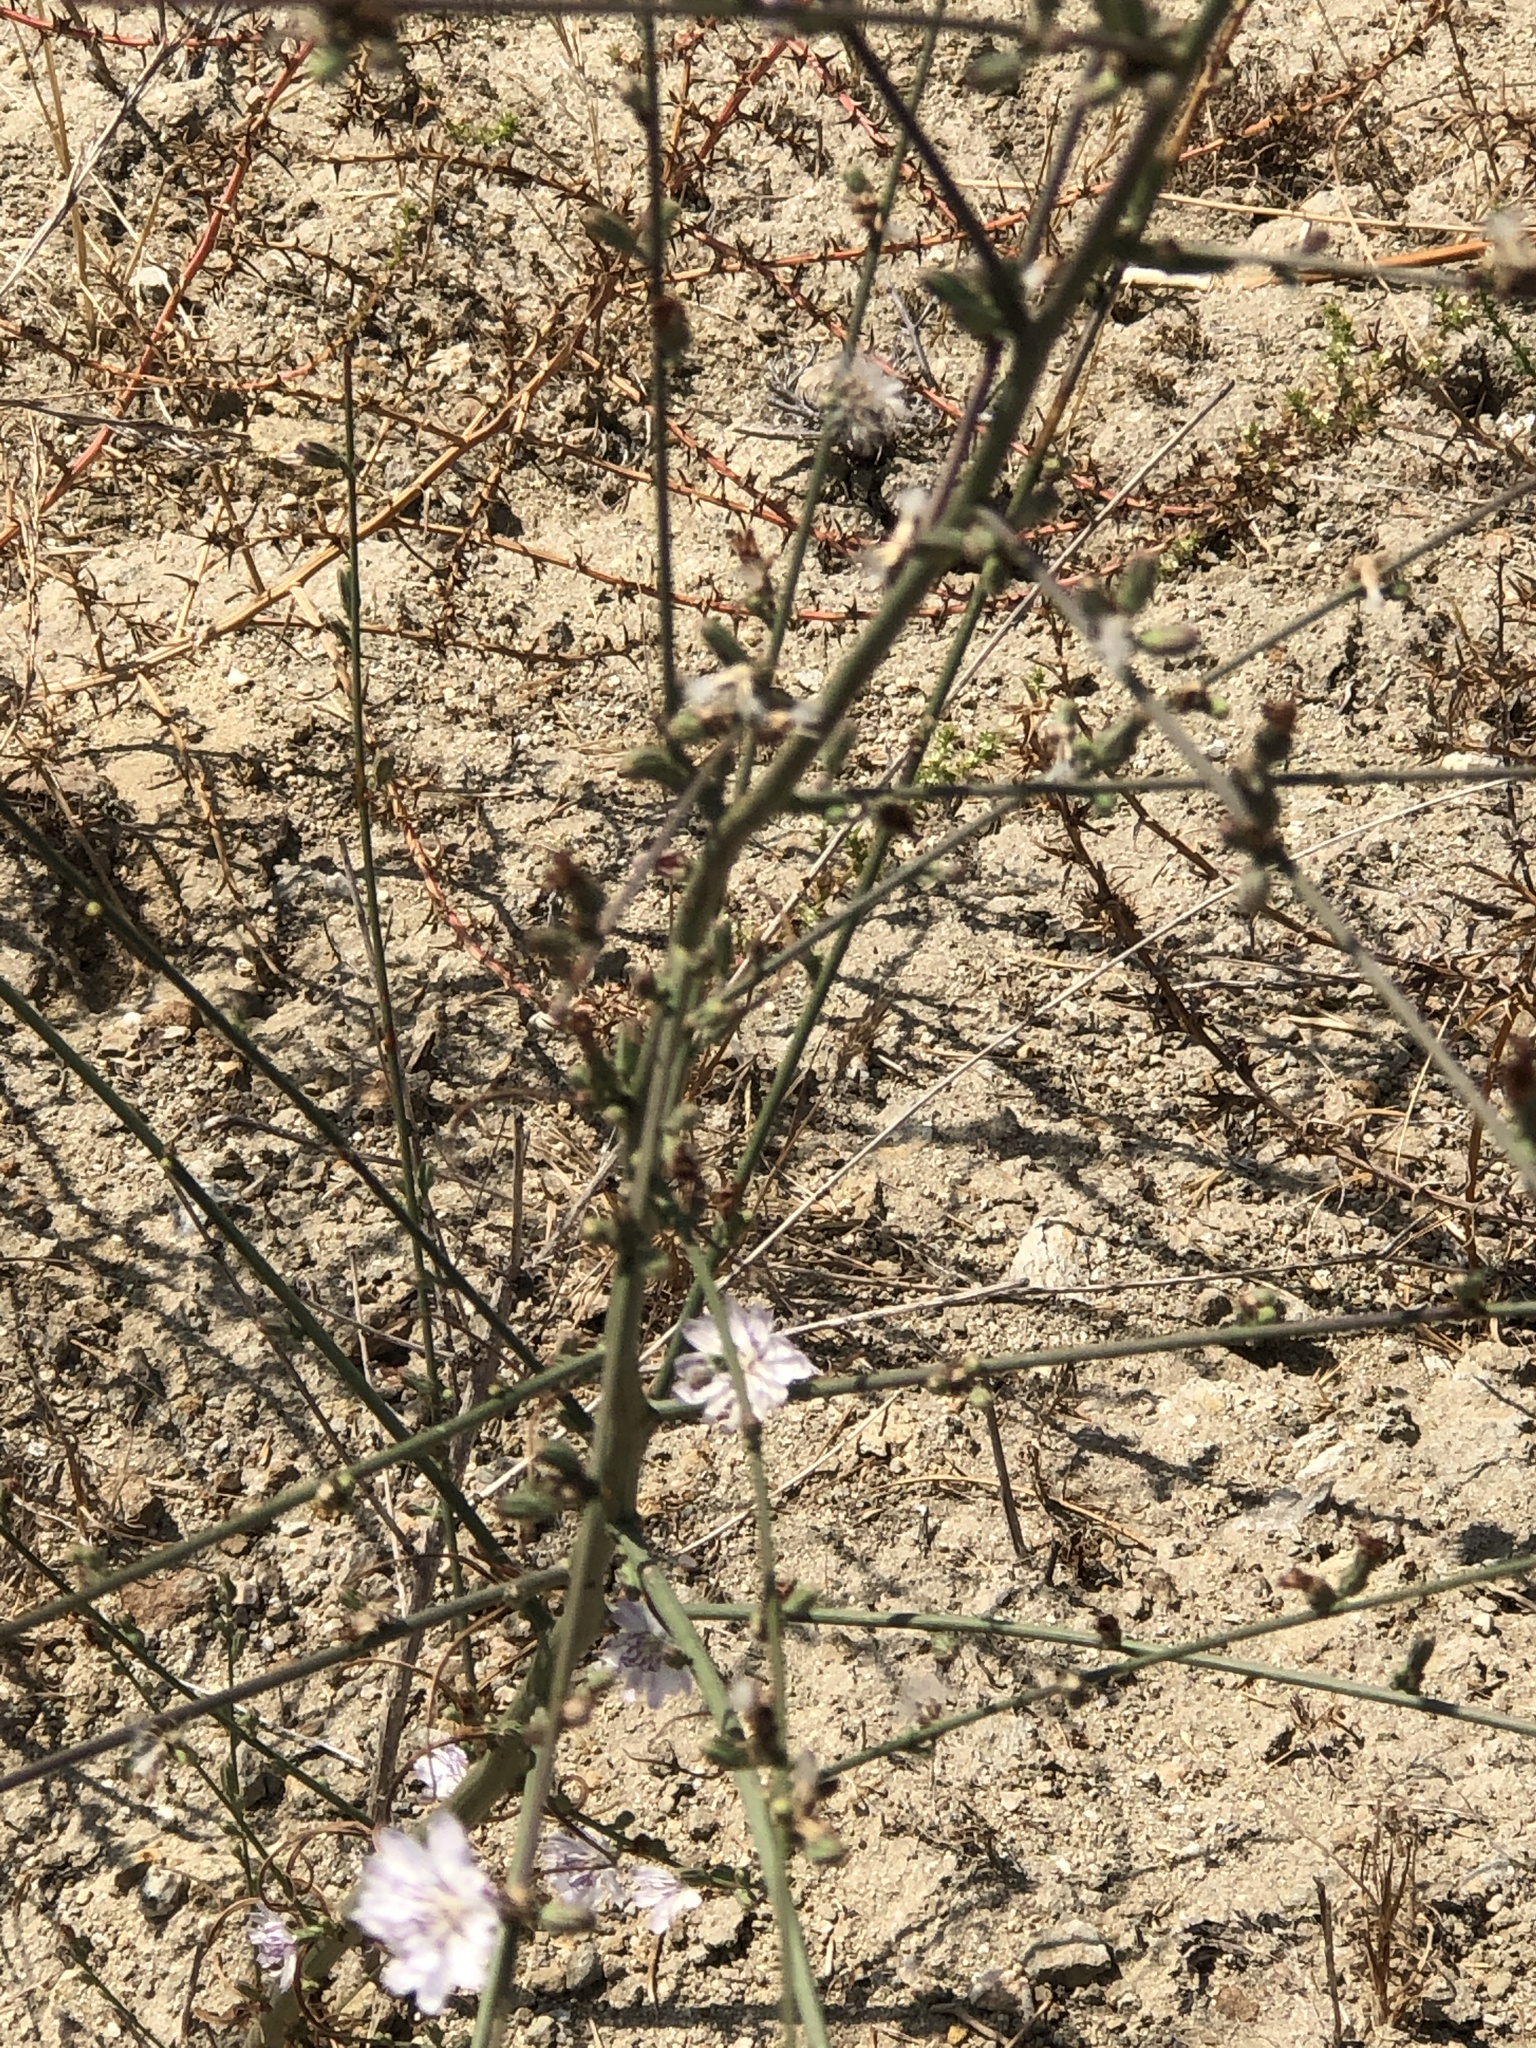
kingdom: Plantae
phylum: Tracheophyta
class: Magnoliopsida
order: Asterales
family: Asteraceae
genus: Stephanomeria
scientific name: Stephanomeria diegensis
